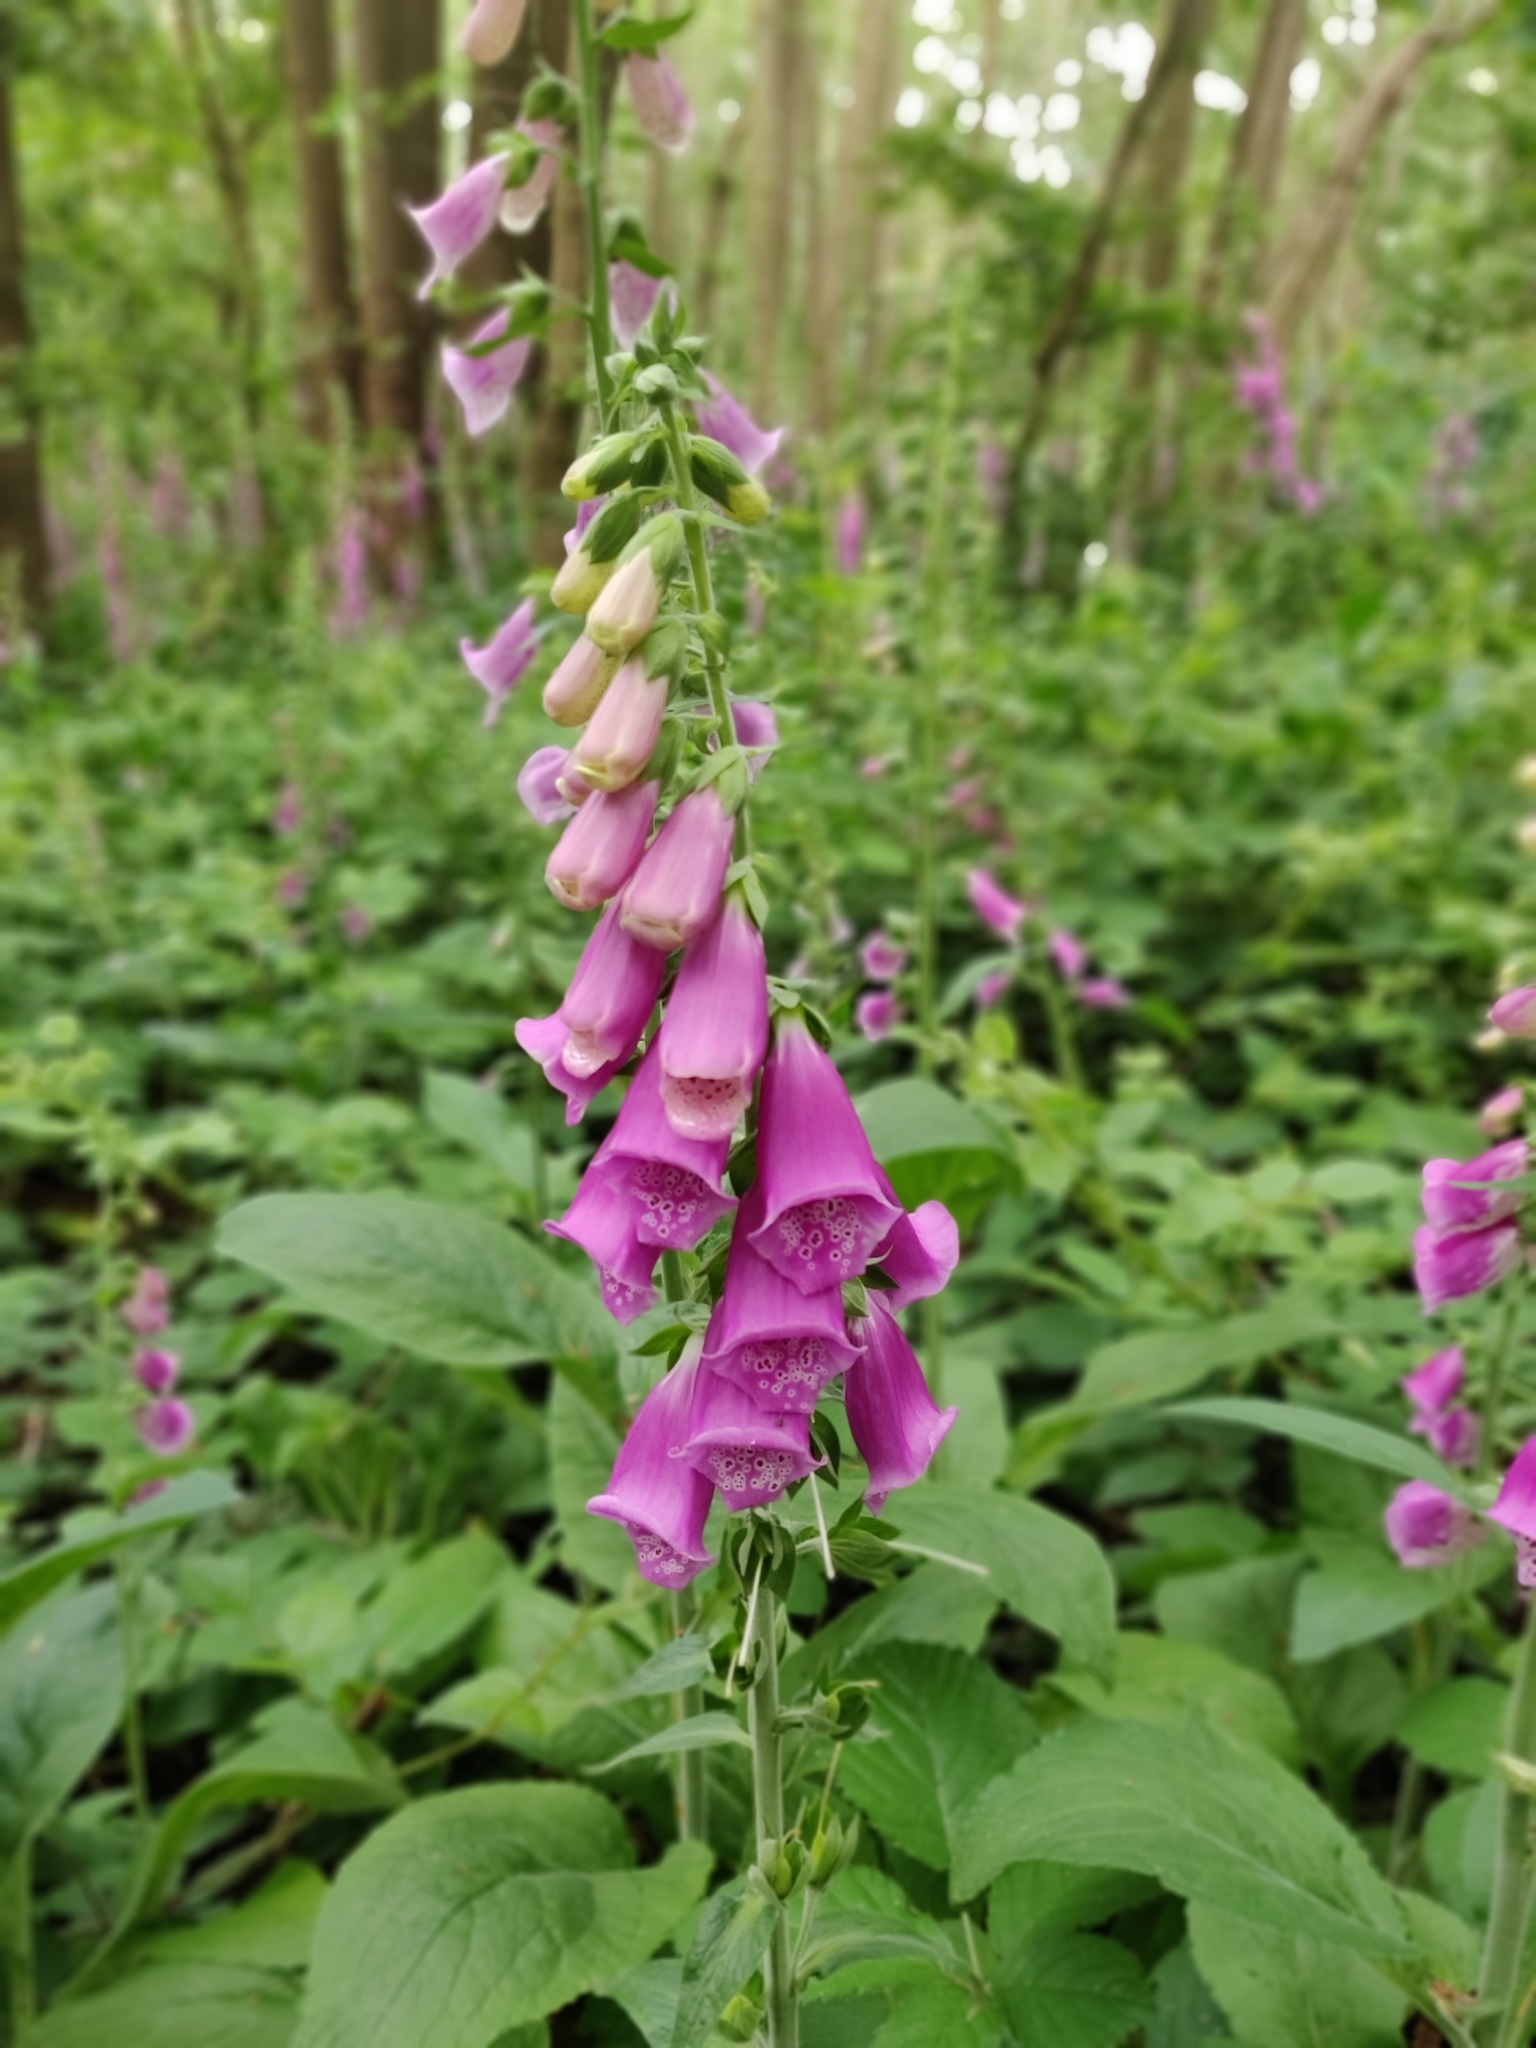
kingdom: Plantae
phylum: Tracheophyta
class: Magnoliopsida
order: Lamiales
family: Plantaginaceae
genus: Digitalis
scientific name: Digitalis purpurea
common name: Foxglove
